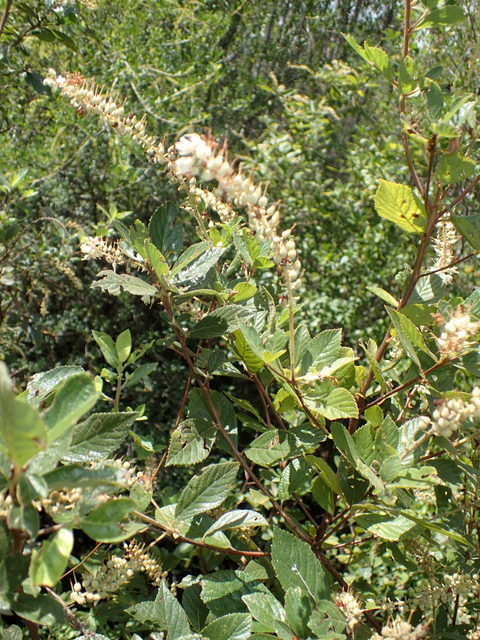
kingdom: Plantae
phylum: Tracheophyta
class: Magnoliopsida
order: Ericales
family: Clethraceae
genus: Clethra
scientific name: Clethra alnifolia
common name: Sweet pepperbush
